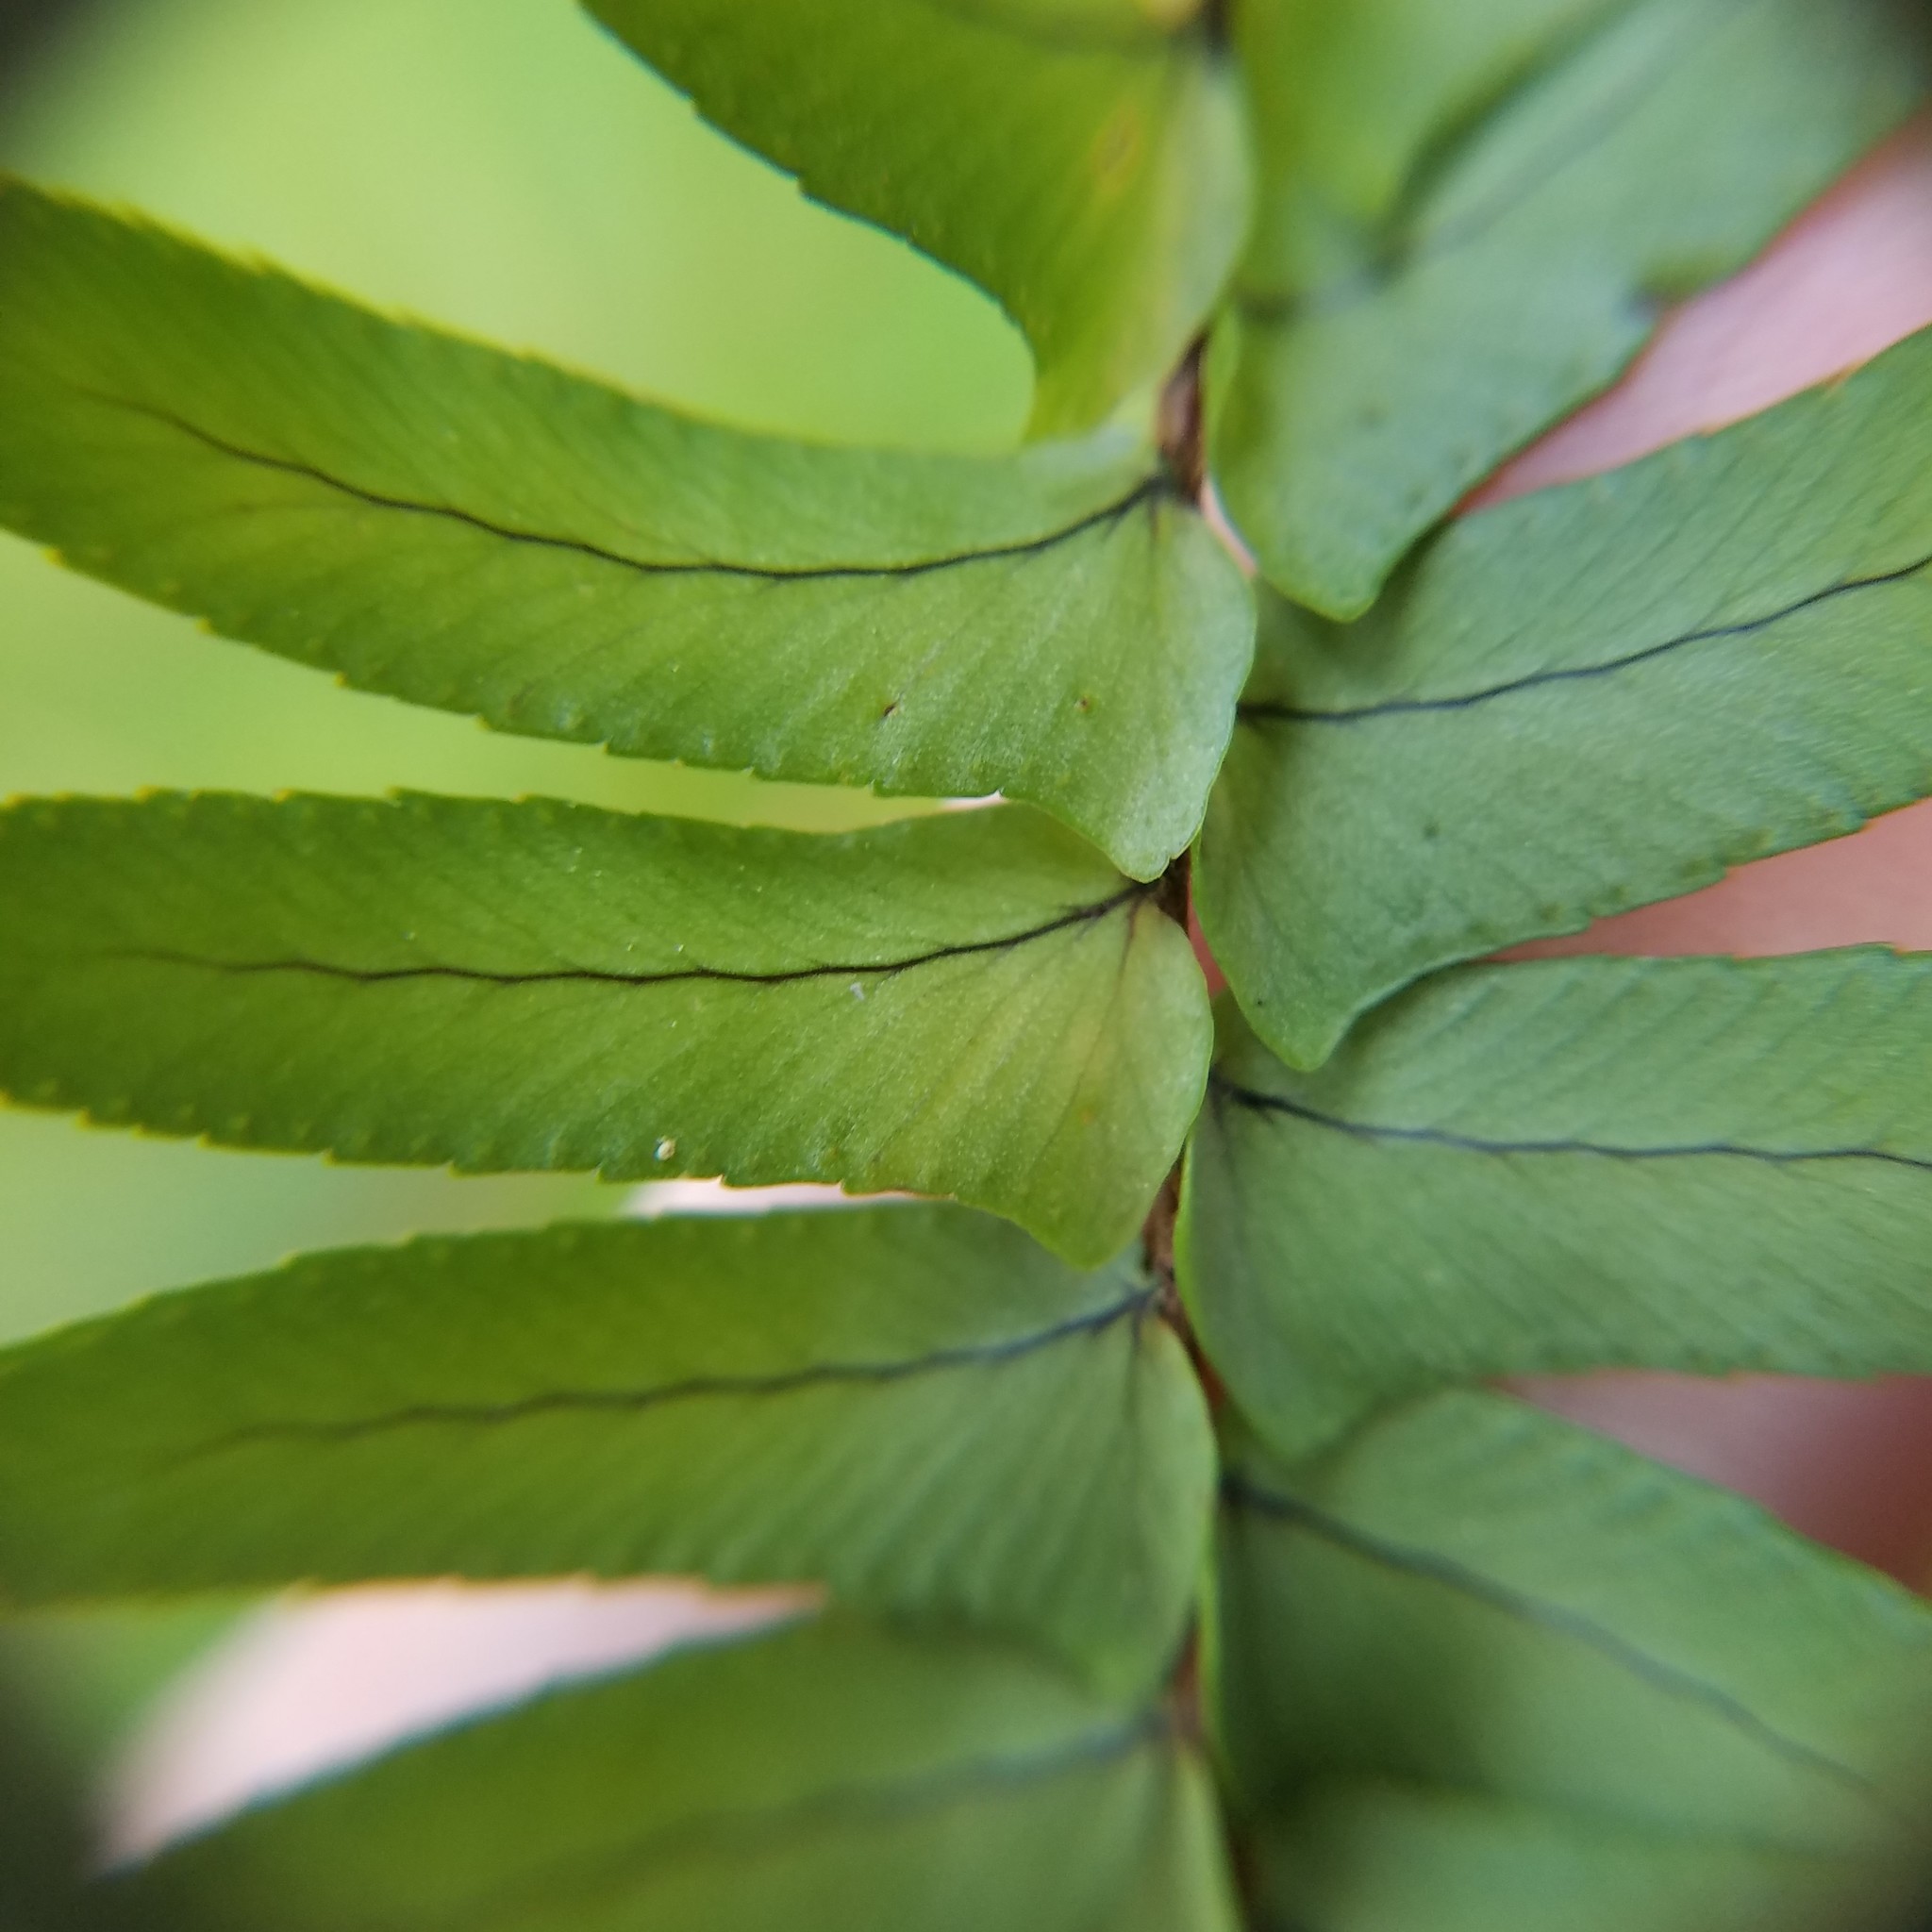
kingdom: Plantae
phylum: Tracheophyta
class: Polypodiopsida
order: Polypodiales
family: Nephrolepidaceae
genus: Nephrolepis
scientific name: Nephrolepis cordifolia
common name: Narrow swordfern
